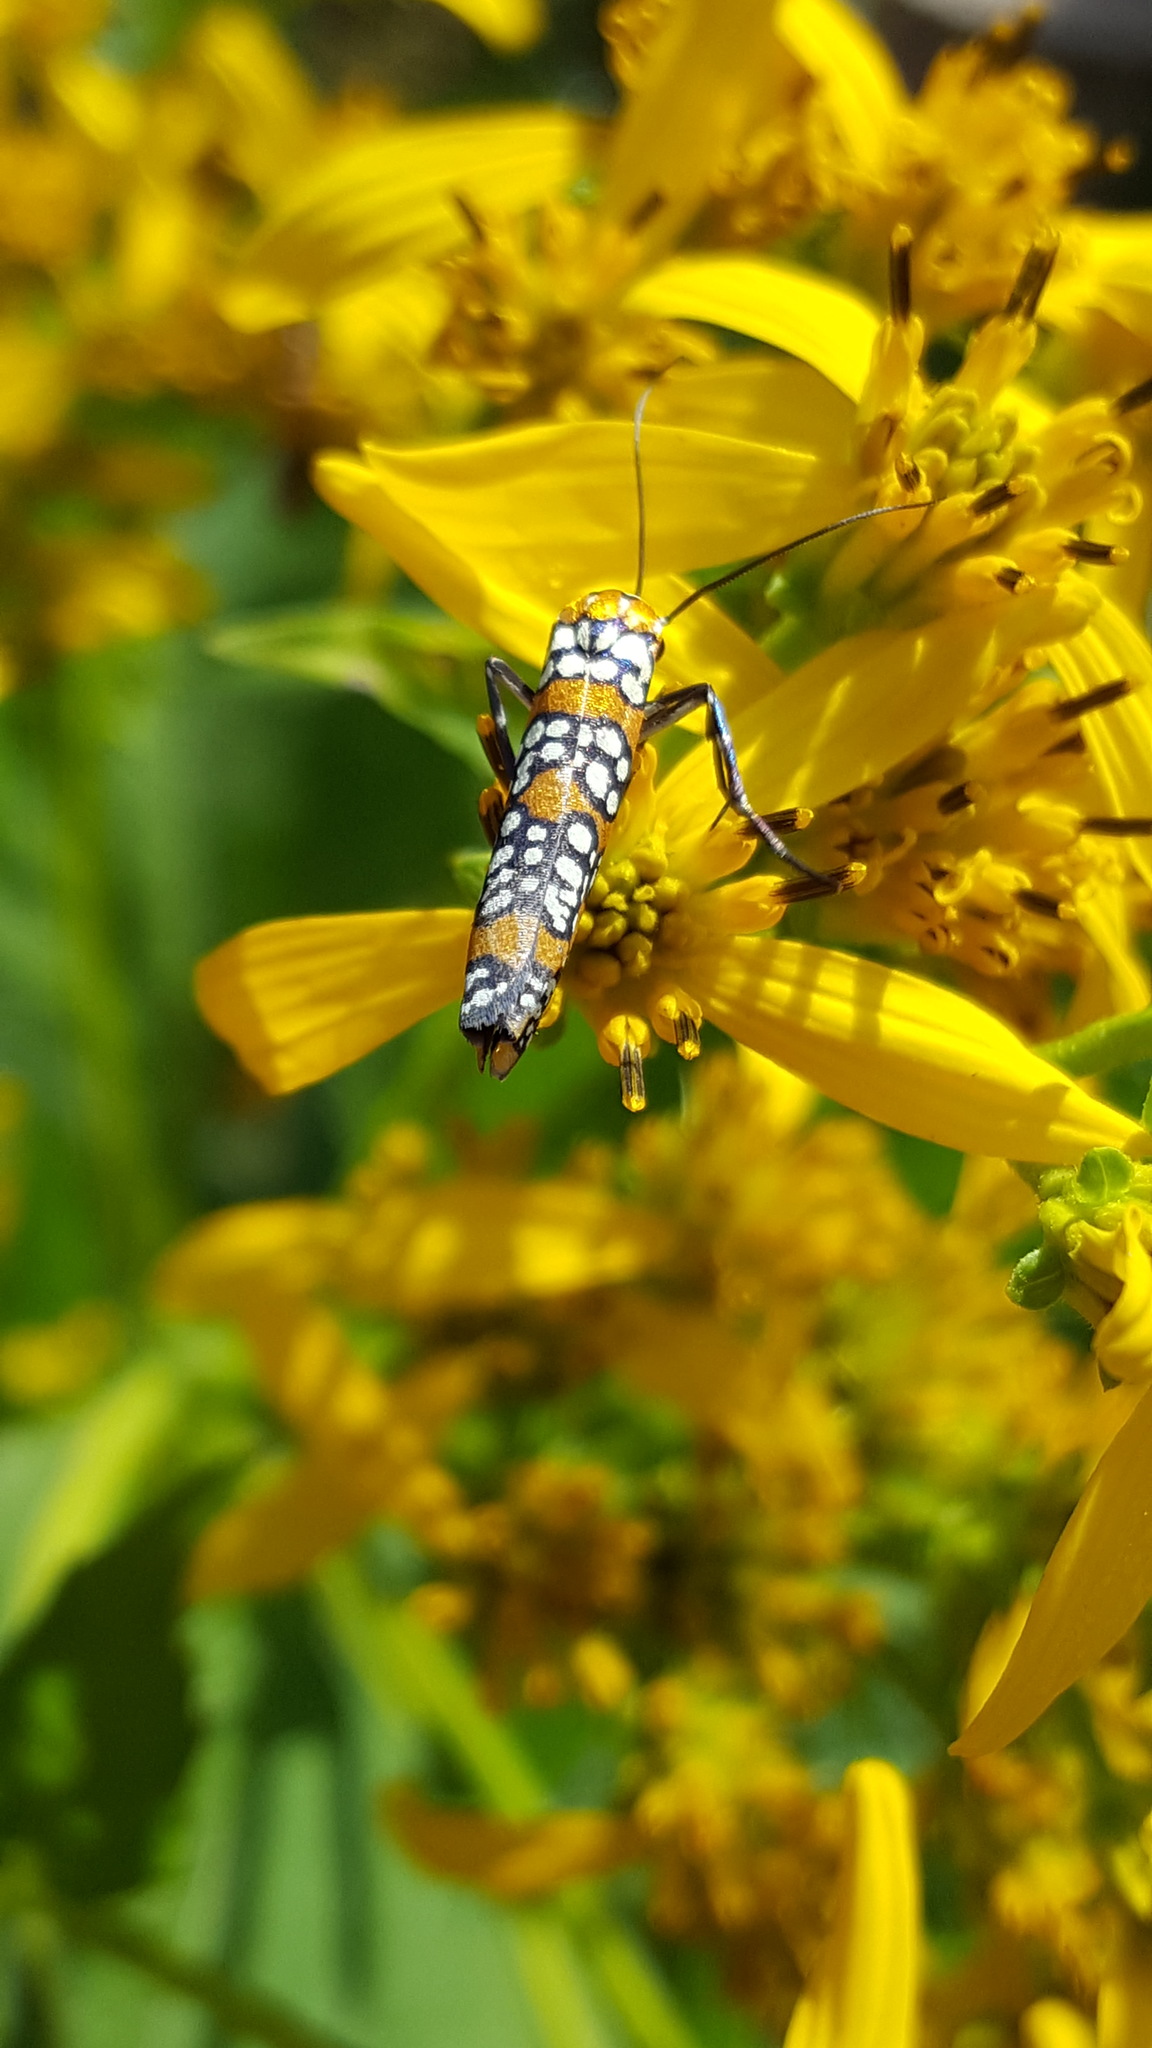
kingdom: Animalia
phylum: Arthropoda
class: Insecta
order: Lepidoptera
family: Attevidae
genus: Atteva
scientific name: Atteva punctella
